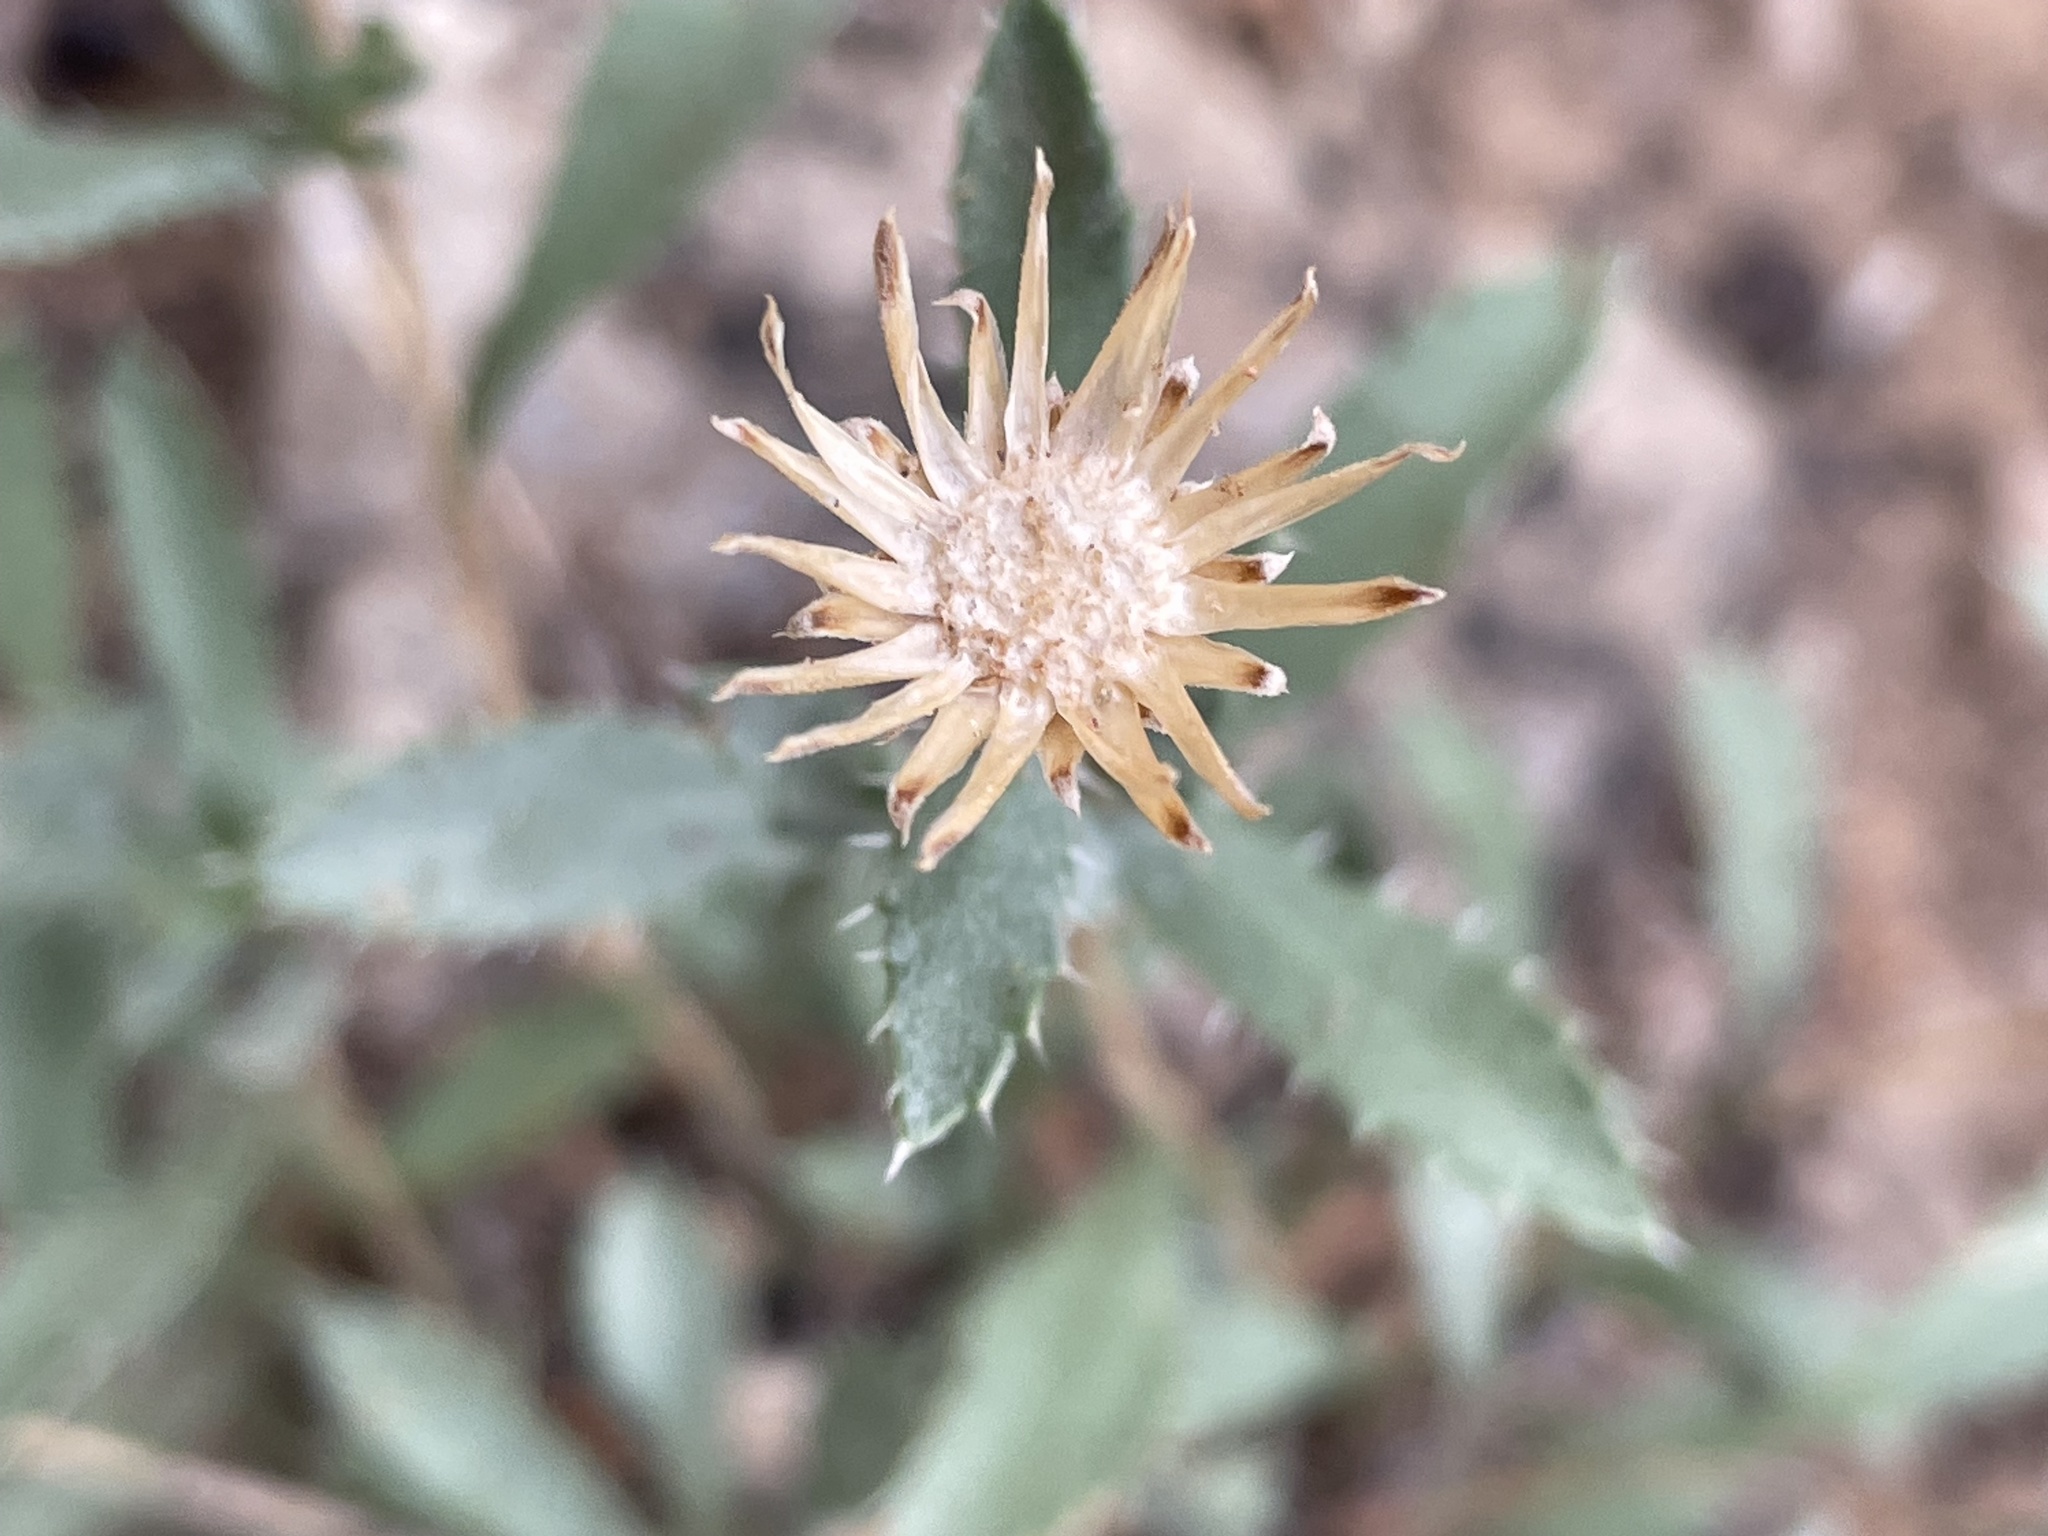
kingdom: Plantae
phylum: Tracheophyta
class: Magnoliopsida
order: Asterales
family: Asteraceae
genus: Xanthisma
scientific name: Xanthisma grindelioides
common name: Goldenweed
